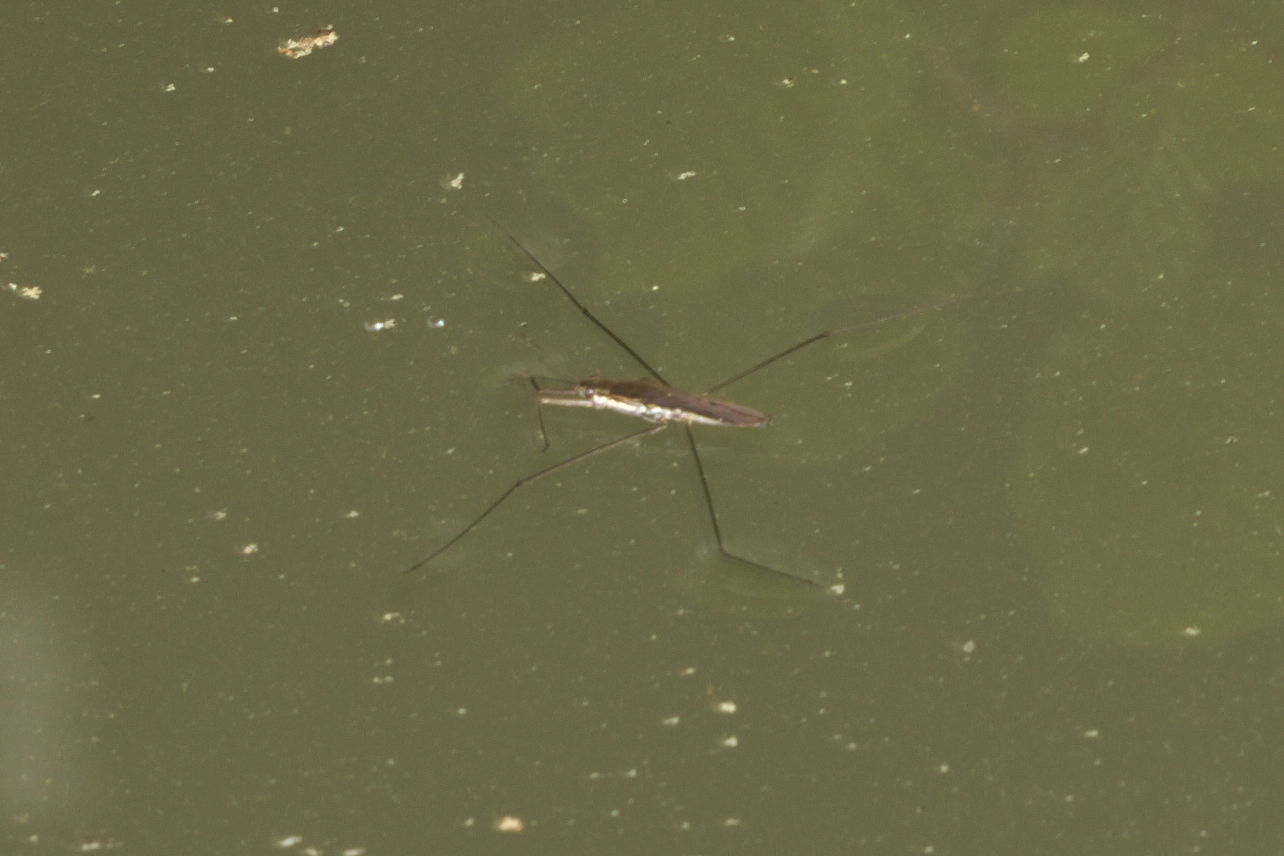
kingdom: Animalia
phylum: Arthropoda
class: Insecta
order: Hemiptera
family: Gerridae
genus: Aquarius
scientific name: Aquarius paludum
